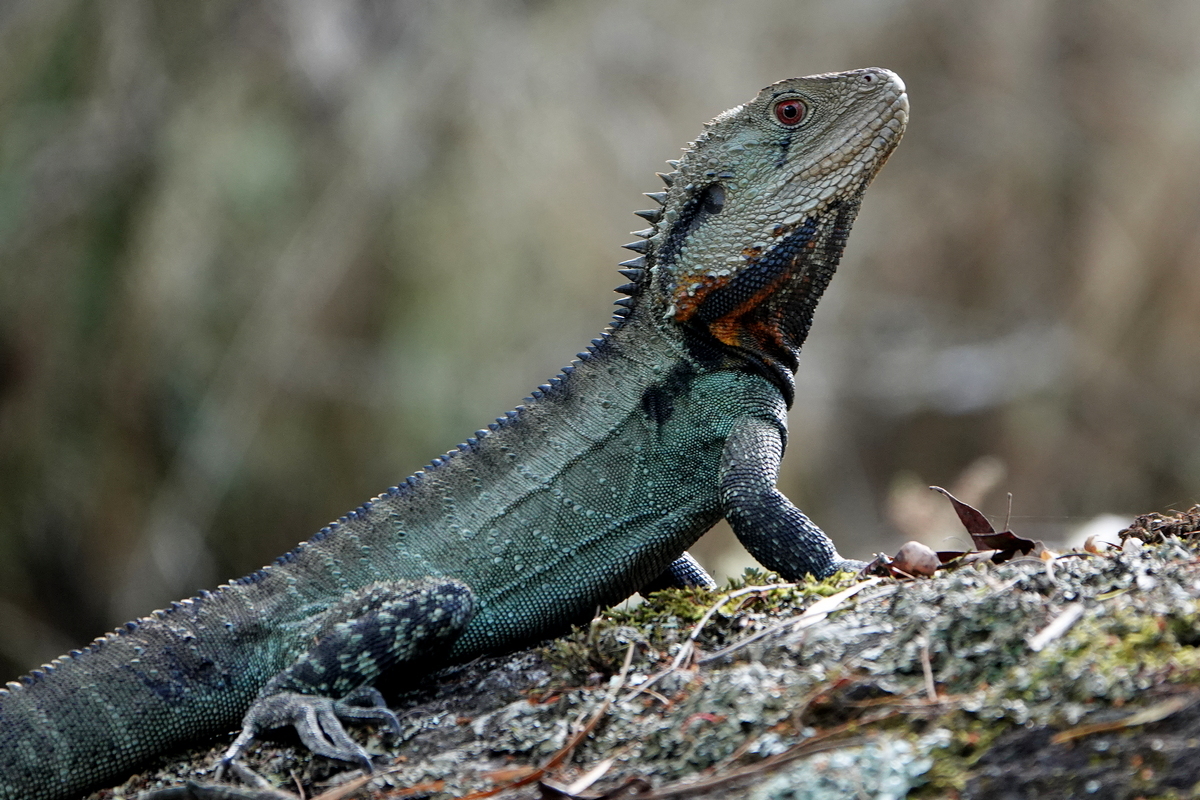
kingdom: Animalia
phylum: Chordata
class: Squamata
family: Agamidae
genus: Intellagama
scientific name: Intellagama lesueurii
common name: Eastern water dragon
